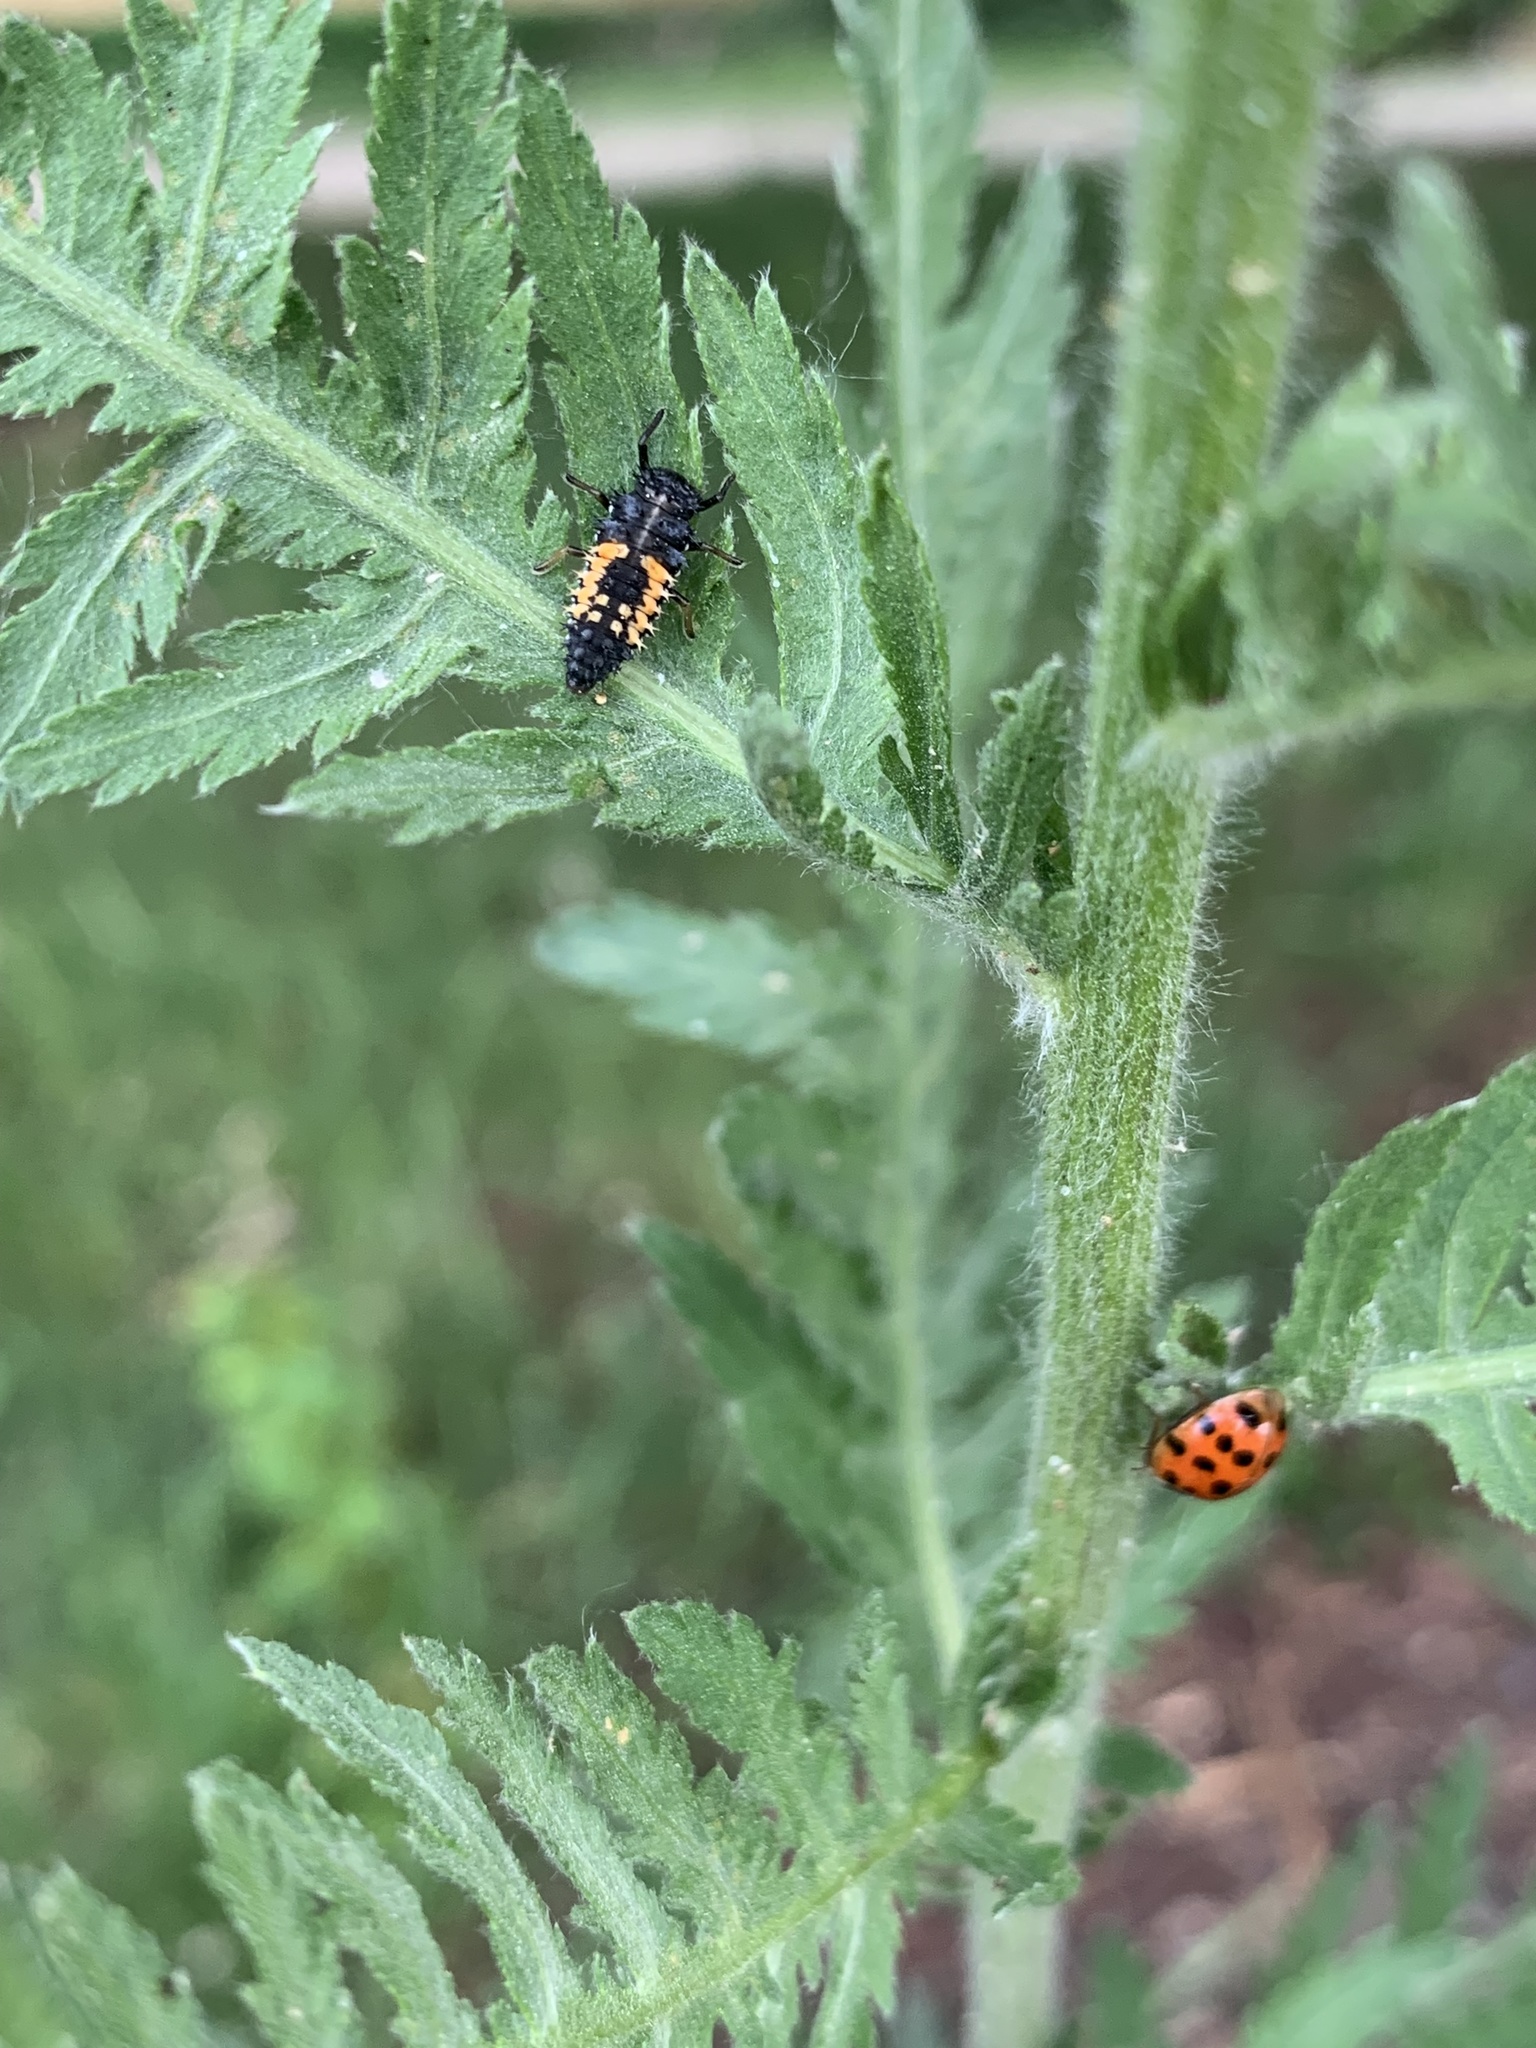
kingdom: Animalia
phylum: Arthropoda
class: Insecta
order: Coleoptera
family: Coccinellidae
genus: Harmonia
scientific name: Harmonia axyridis
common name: Harlequin ladybird
